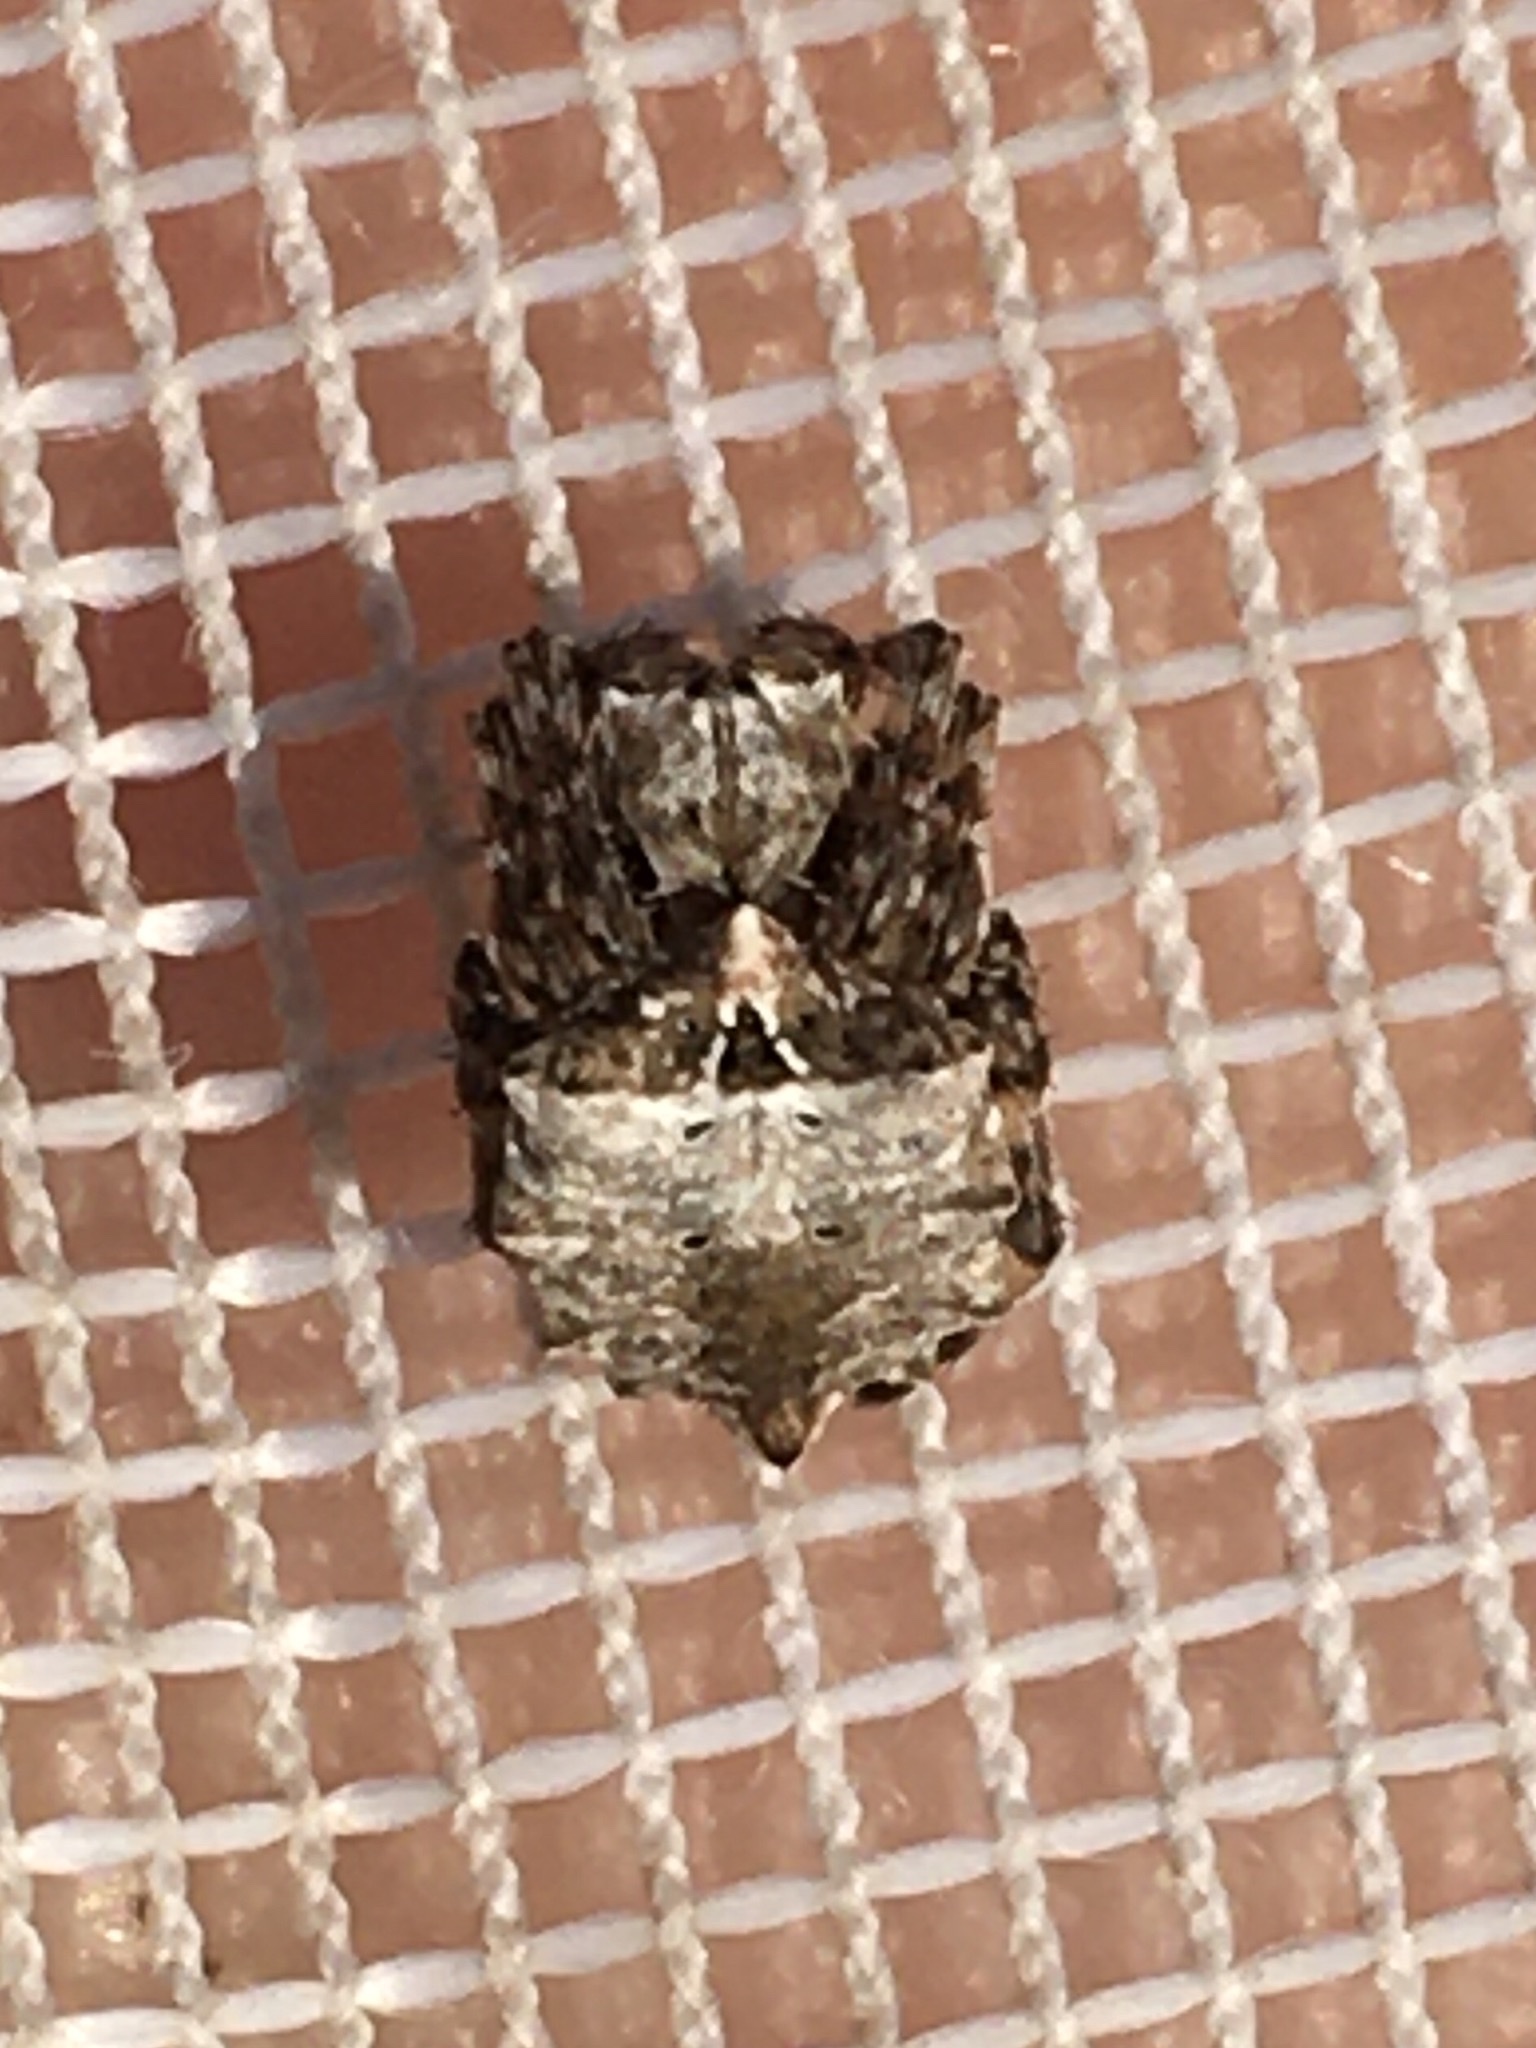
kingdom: Animalia
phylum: Arthropoda
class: Arachnida
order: Araneae
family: Araneidae
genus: Acanthepeira
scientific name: Acanthepeira stellata
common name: Starbellied orbweaver
